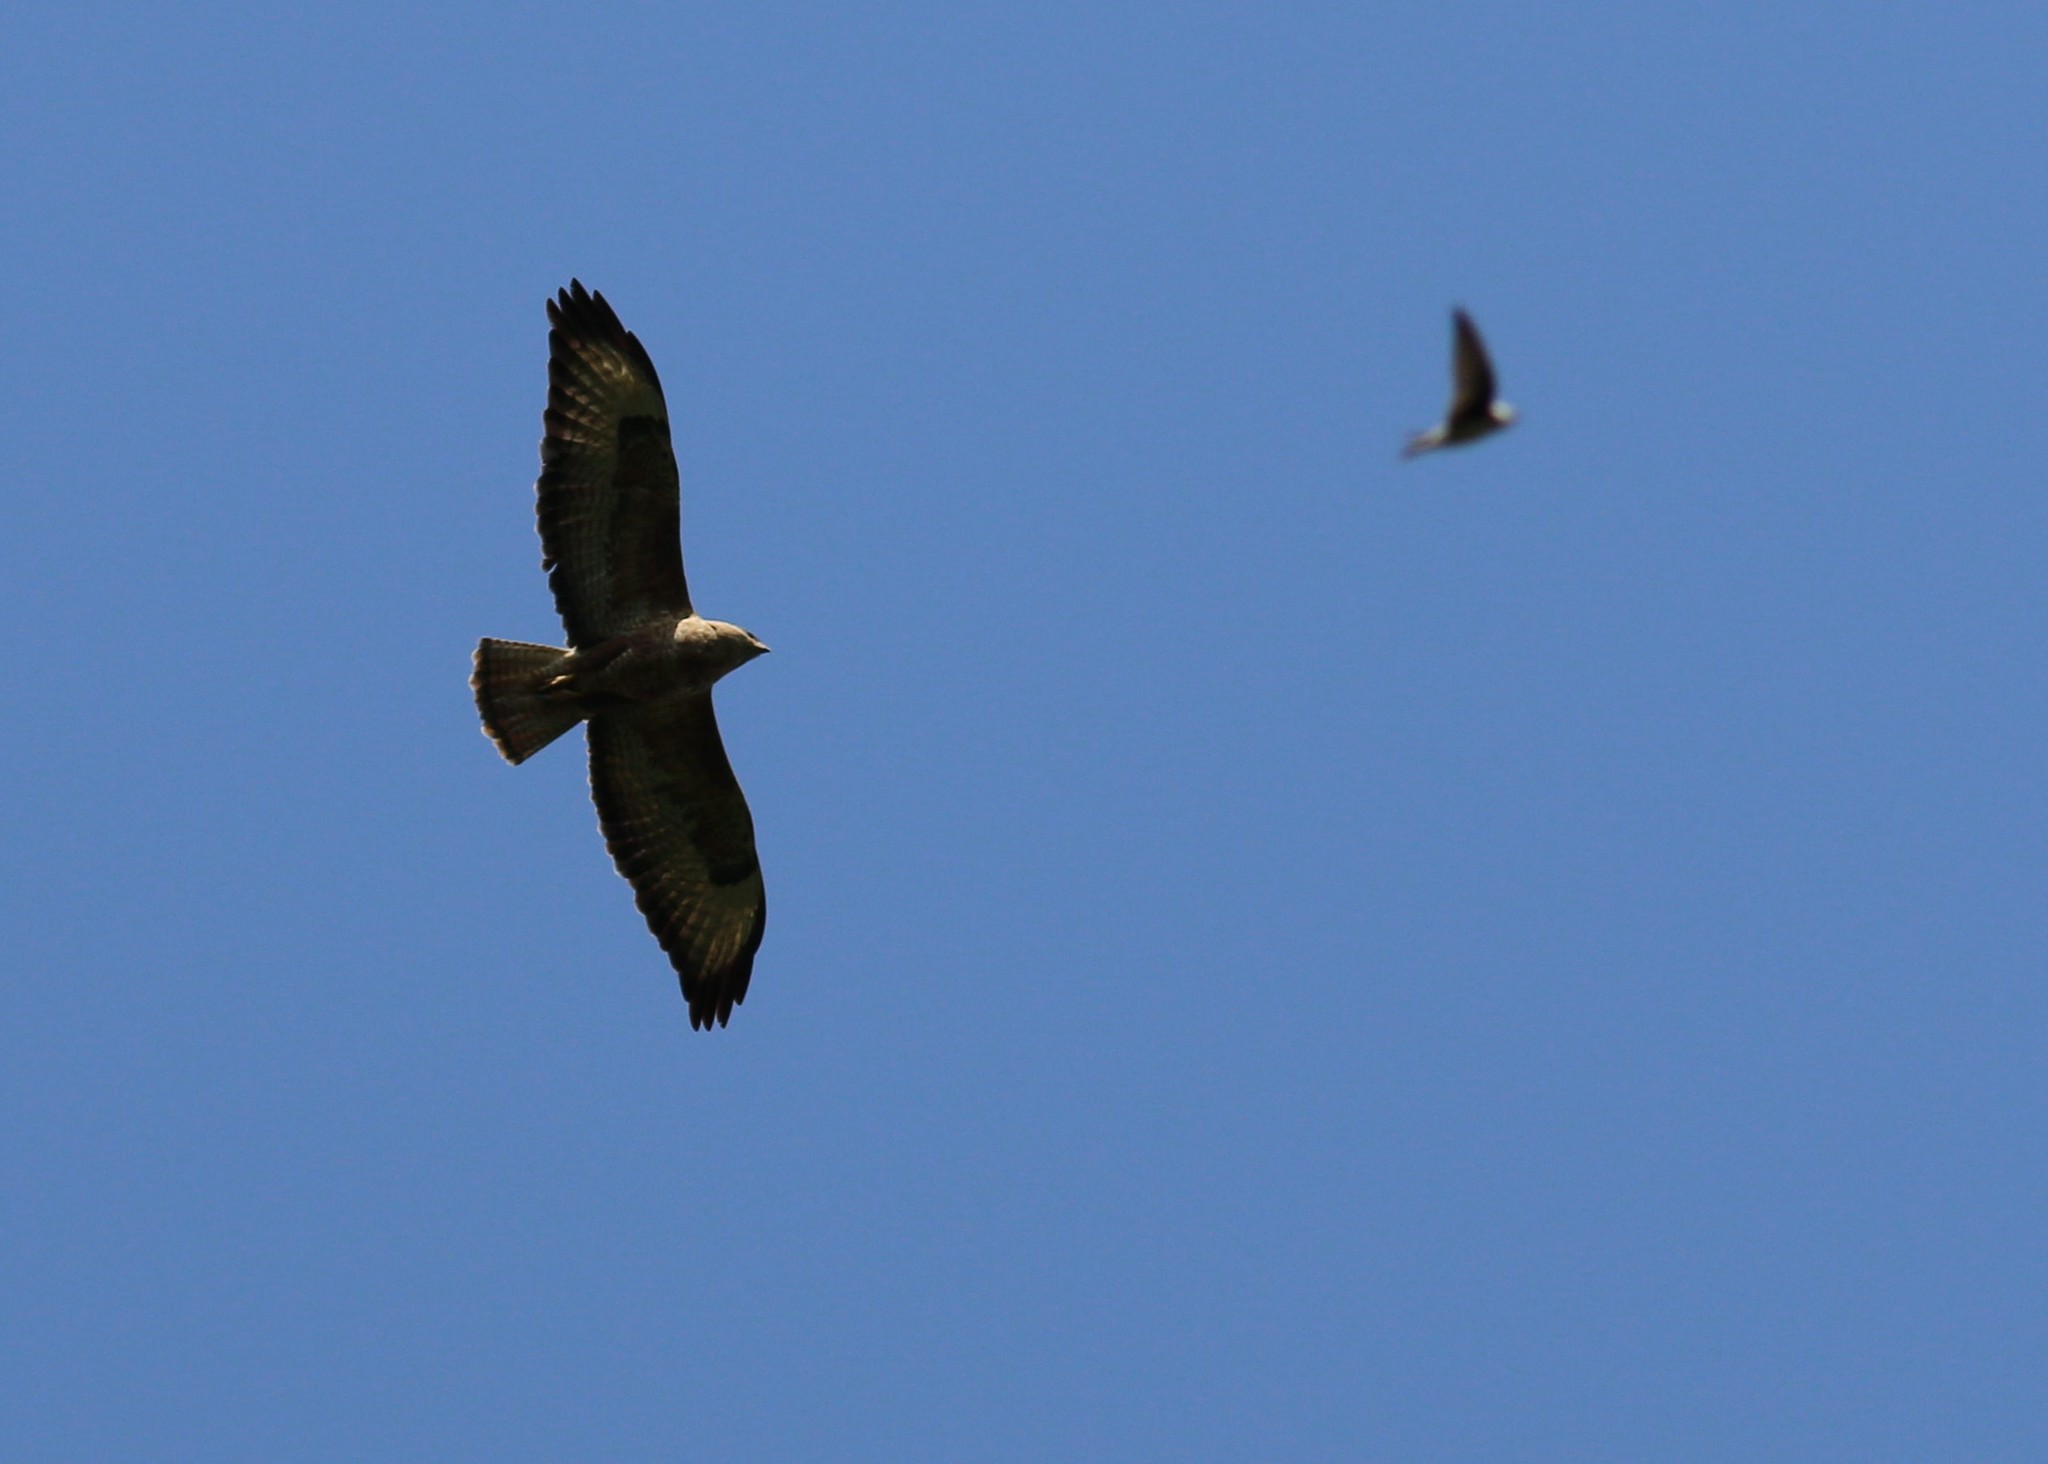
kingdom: Animalia
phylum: Chordata
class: Aves
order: Accipitriformes
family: Accipitridae
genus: Buteo
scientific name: Buteo buteo
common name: Common buzzard
